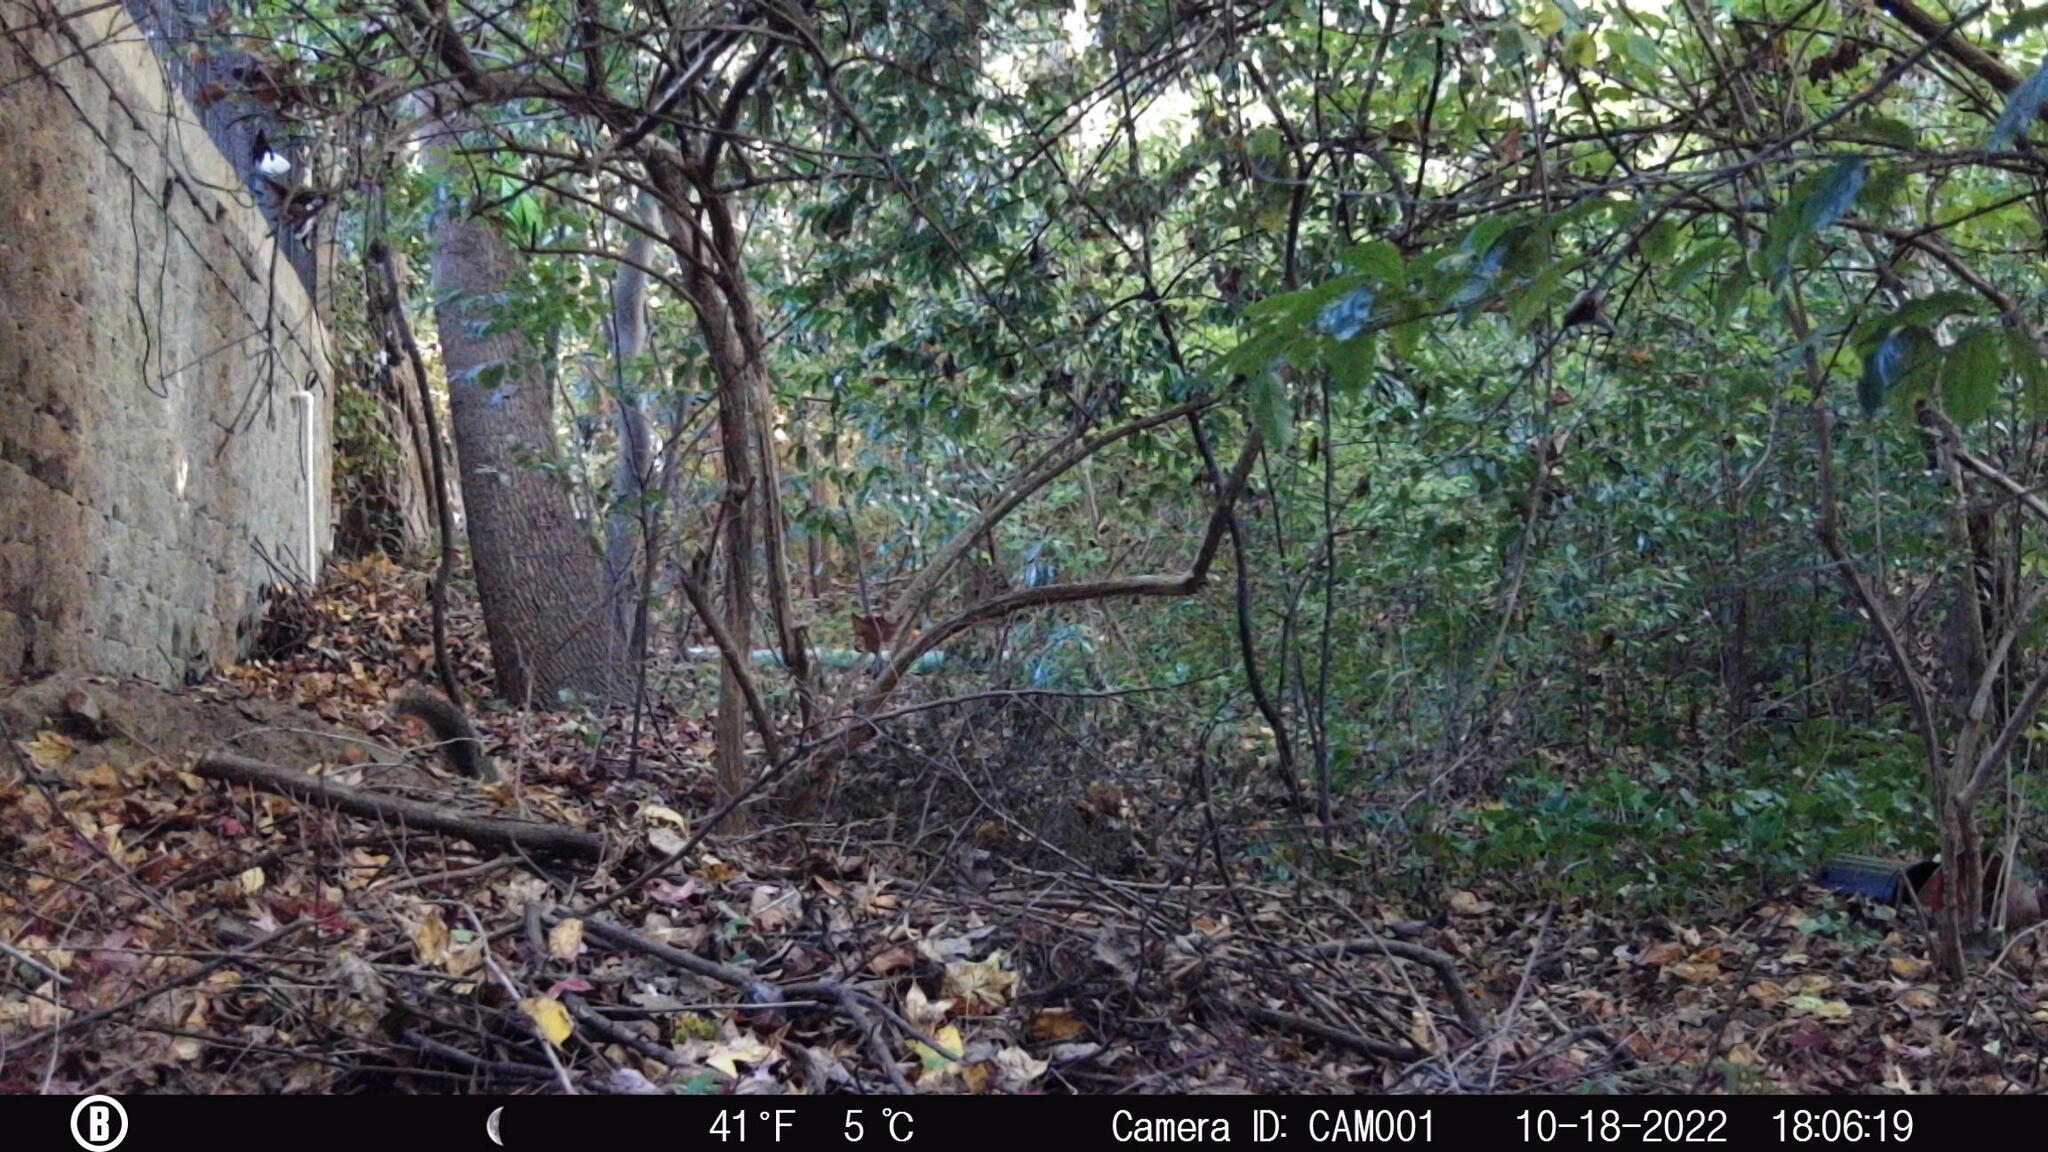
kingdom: Animalia
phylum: Chordata
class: Mammalia
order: Rodentia
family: Sciuridae
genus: Sciurus
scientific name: Sciurus carolinensis
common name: Eastern gray squirrel
